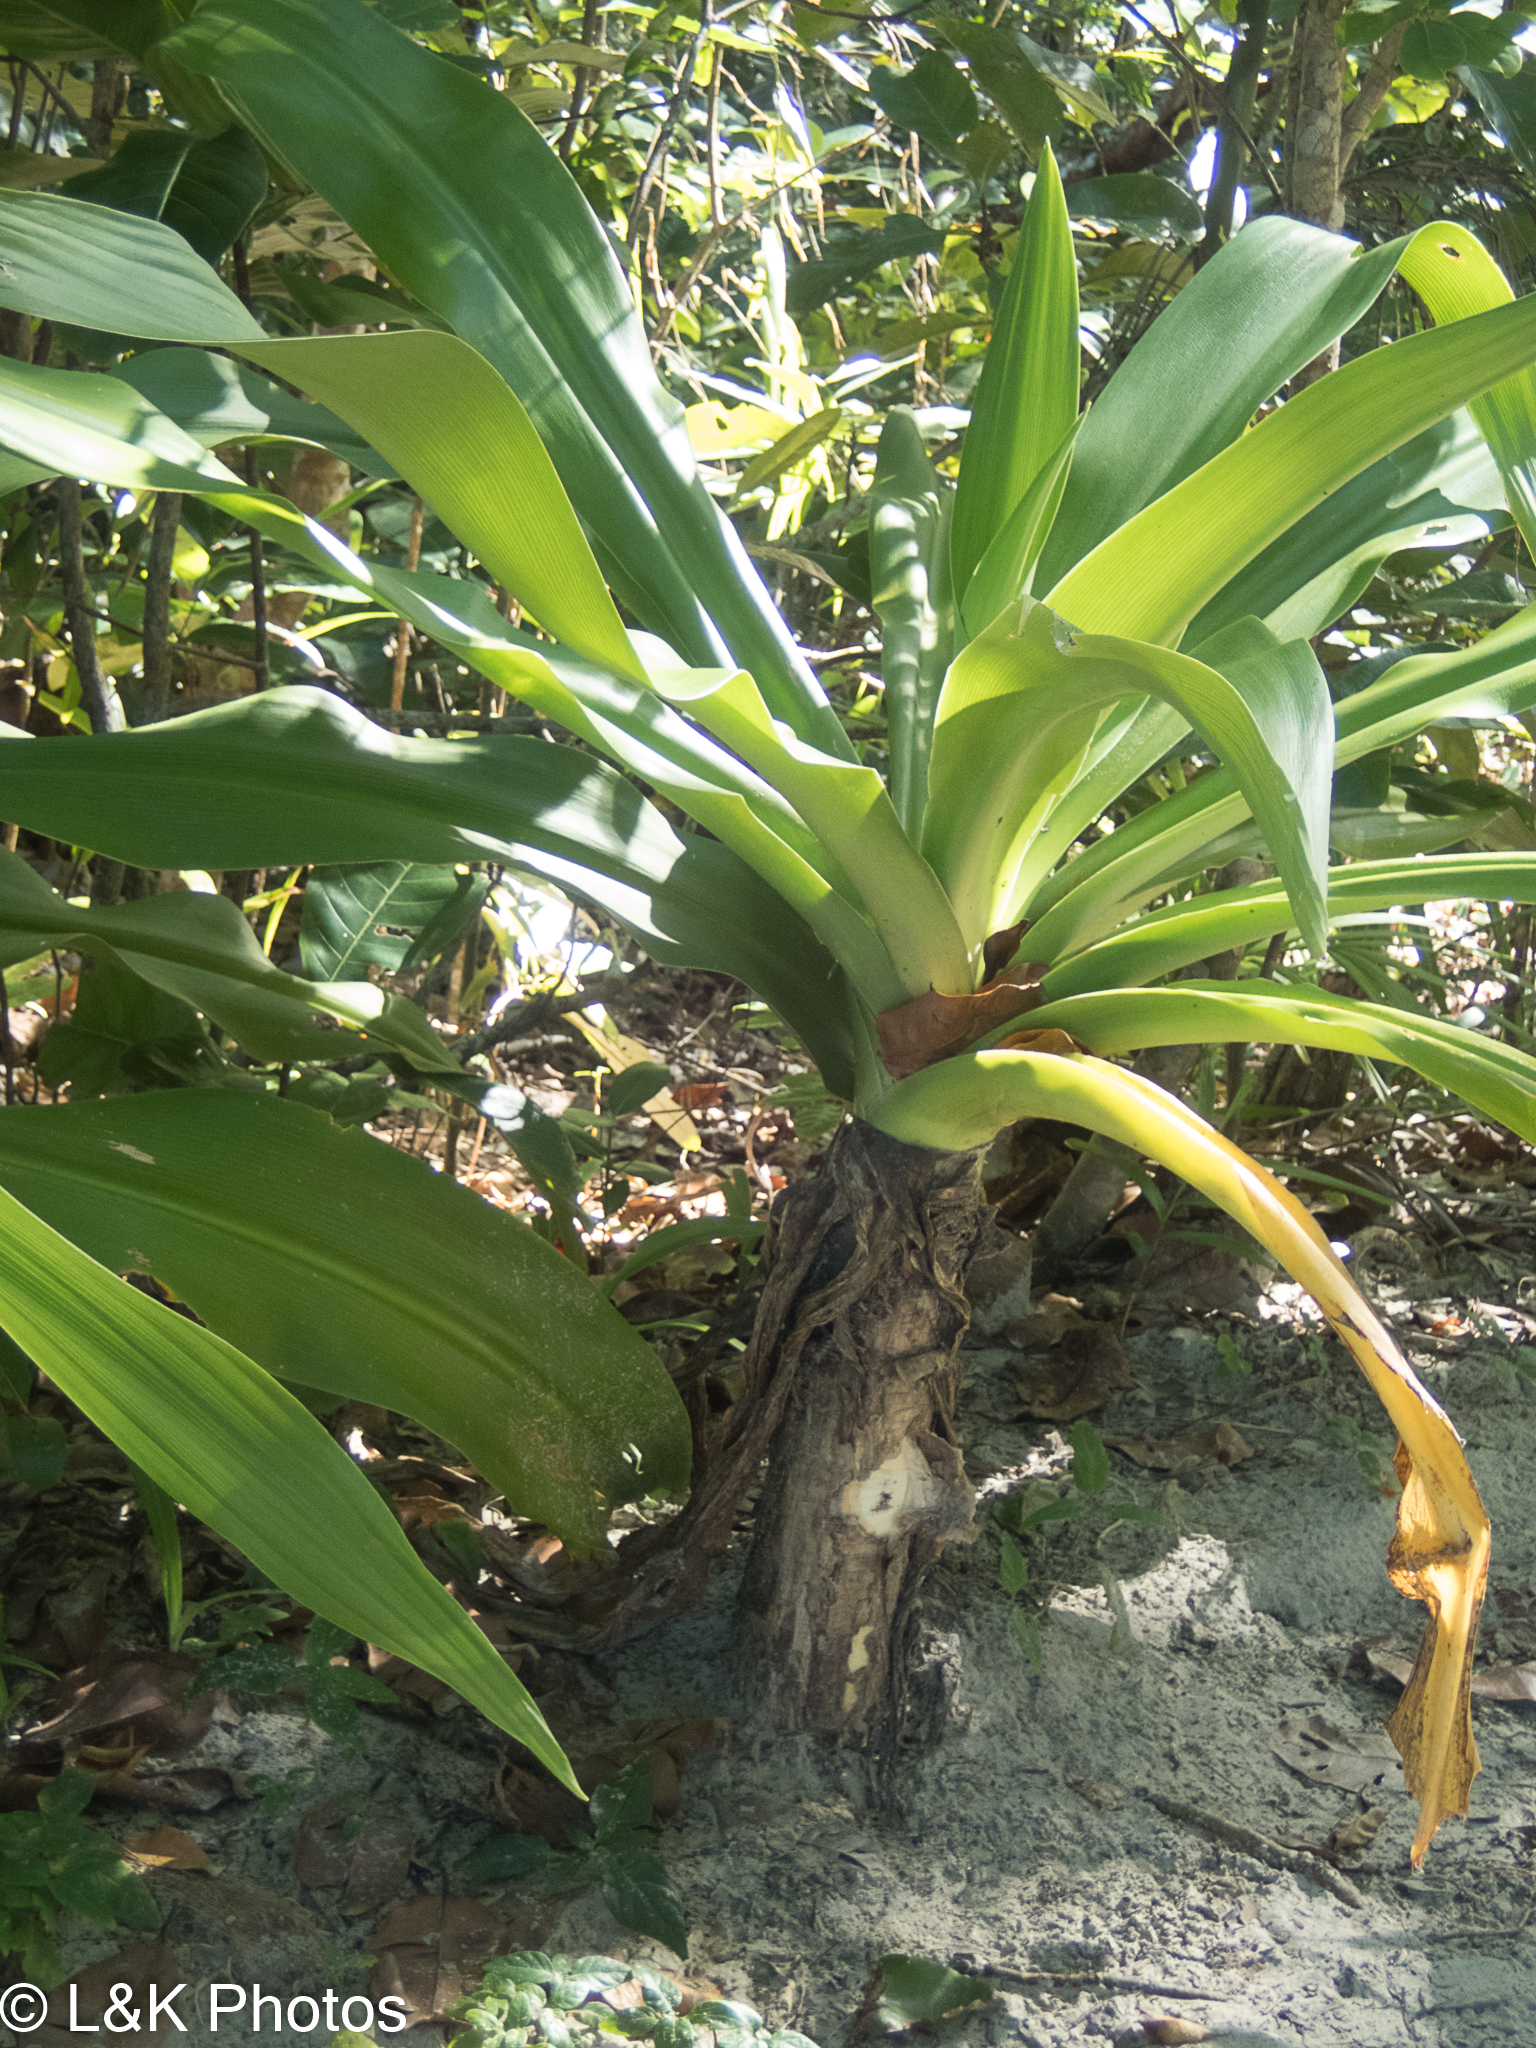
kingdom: Plantae
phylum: Tracheophyta
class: Liliopsida
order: Asparagales
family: Amaryllidaceae
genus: Crinum
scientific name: Crinum pedunculatum
